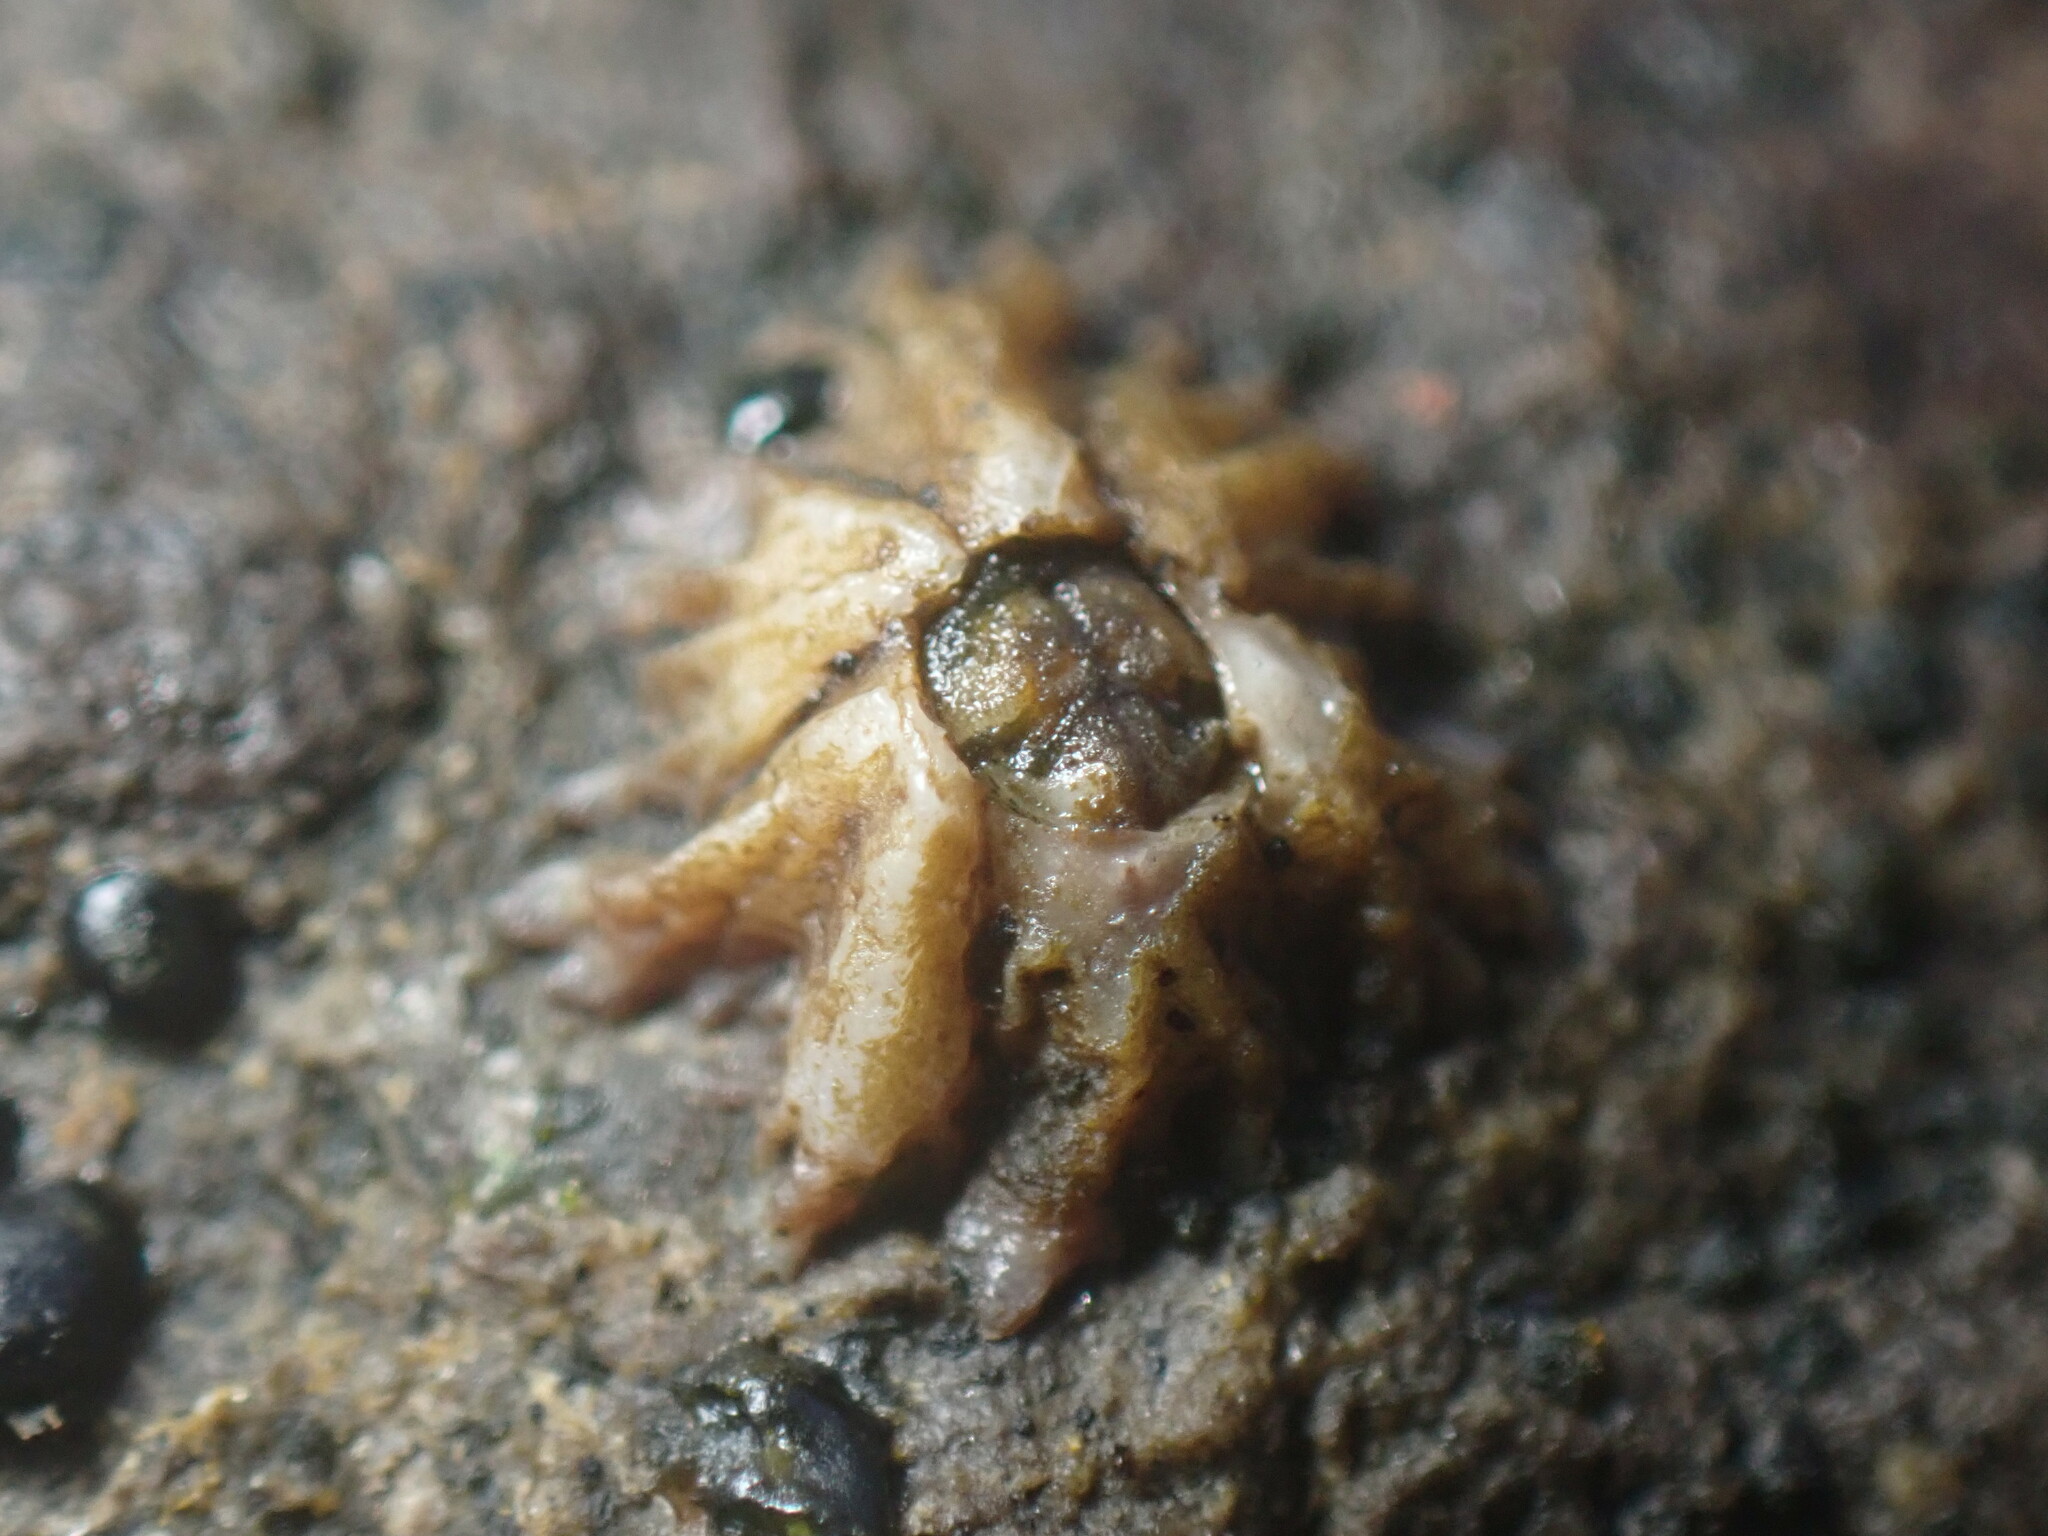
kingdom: Animalia
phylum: Arthropoda
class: Maxillopoda
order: Sessilia
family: Chthamalidae
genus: Chthamalus
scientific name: Chthamalus stellatus
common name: Poli's stellate barnacle
